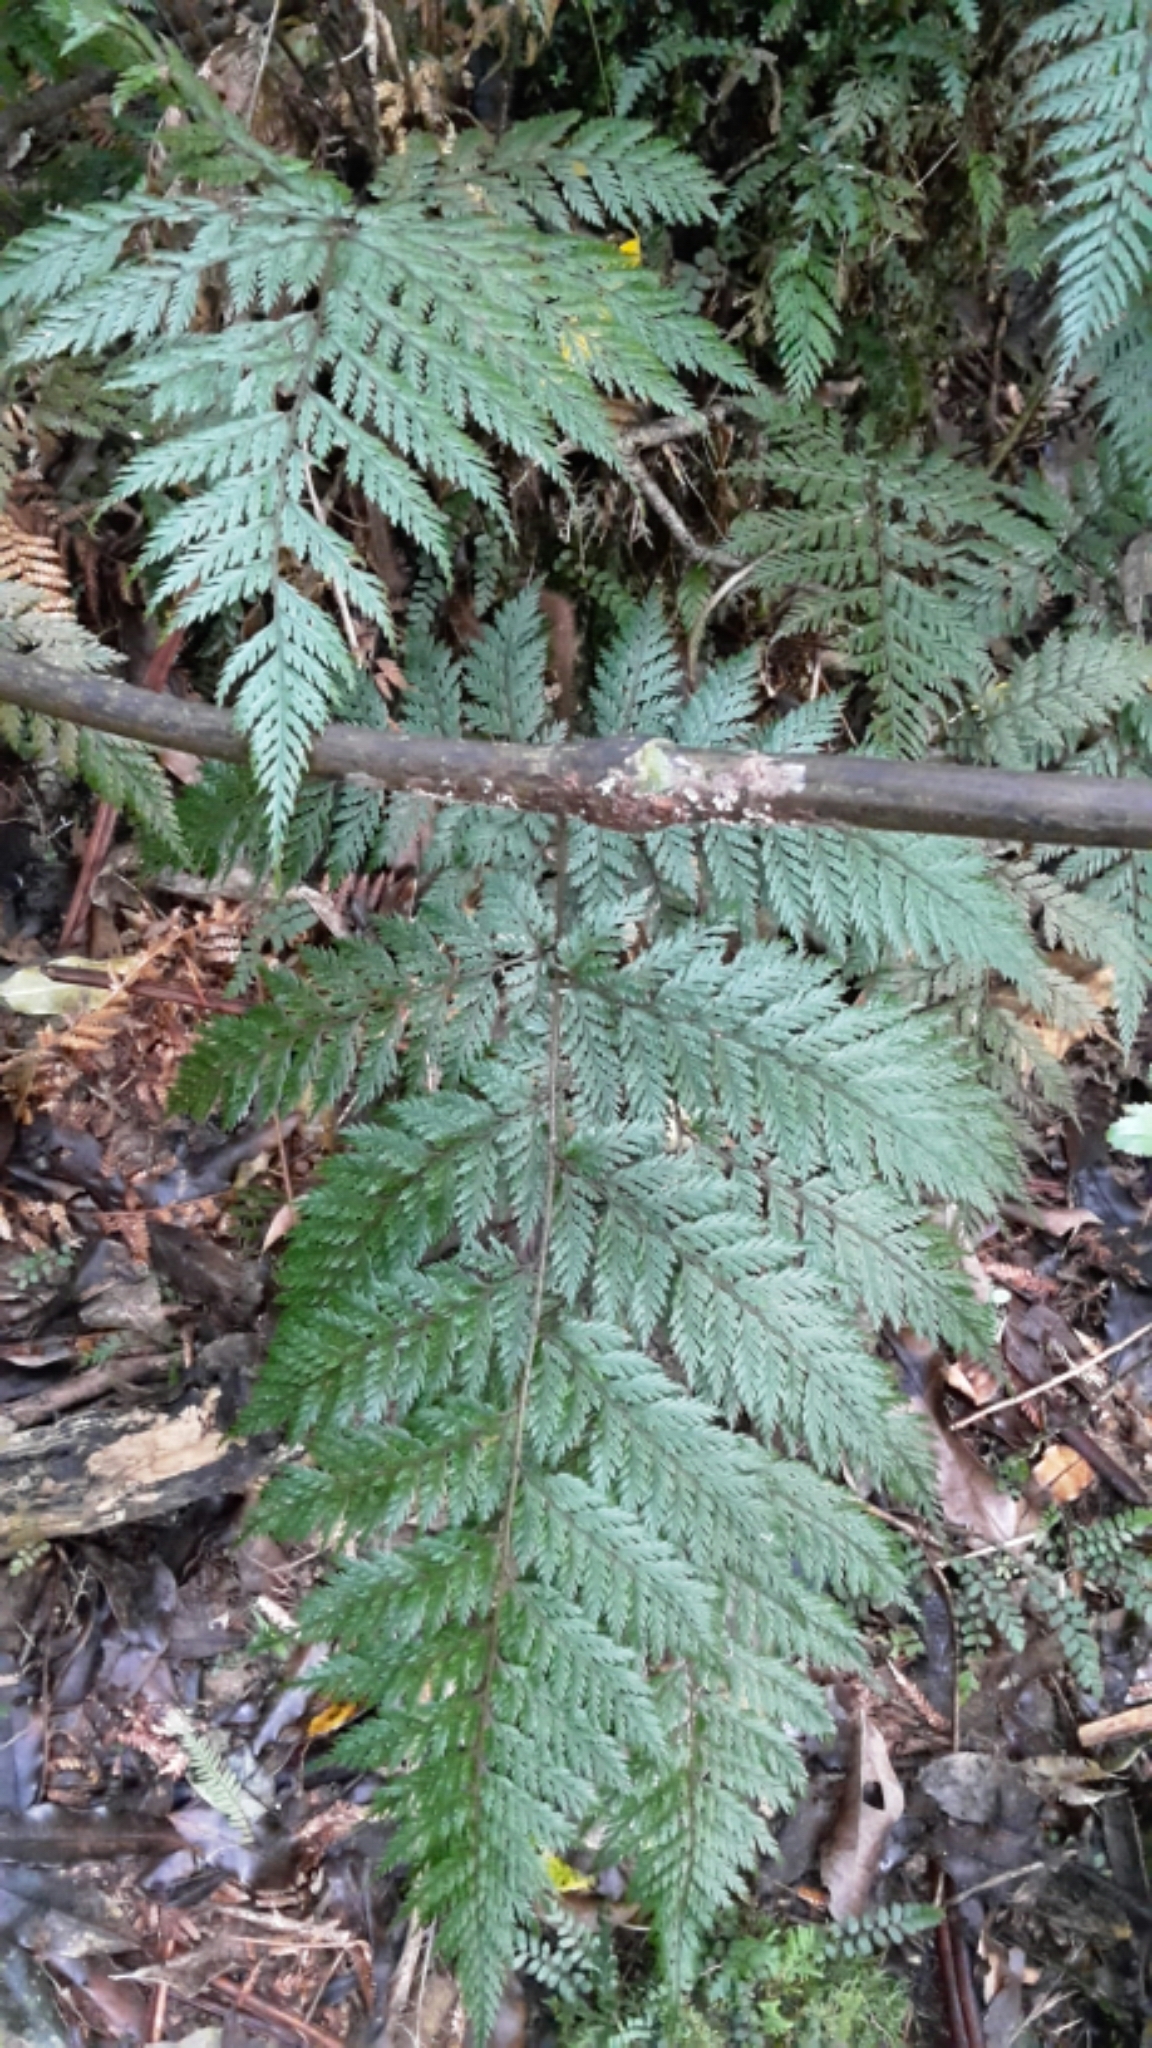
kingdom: Plantae
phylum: Tracheophyta
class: Polypodiopsida
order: Polypodiales
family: Dryopteridaceae
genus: Lastreopsis
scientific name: Lastreopsis hispida
